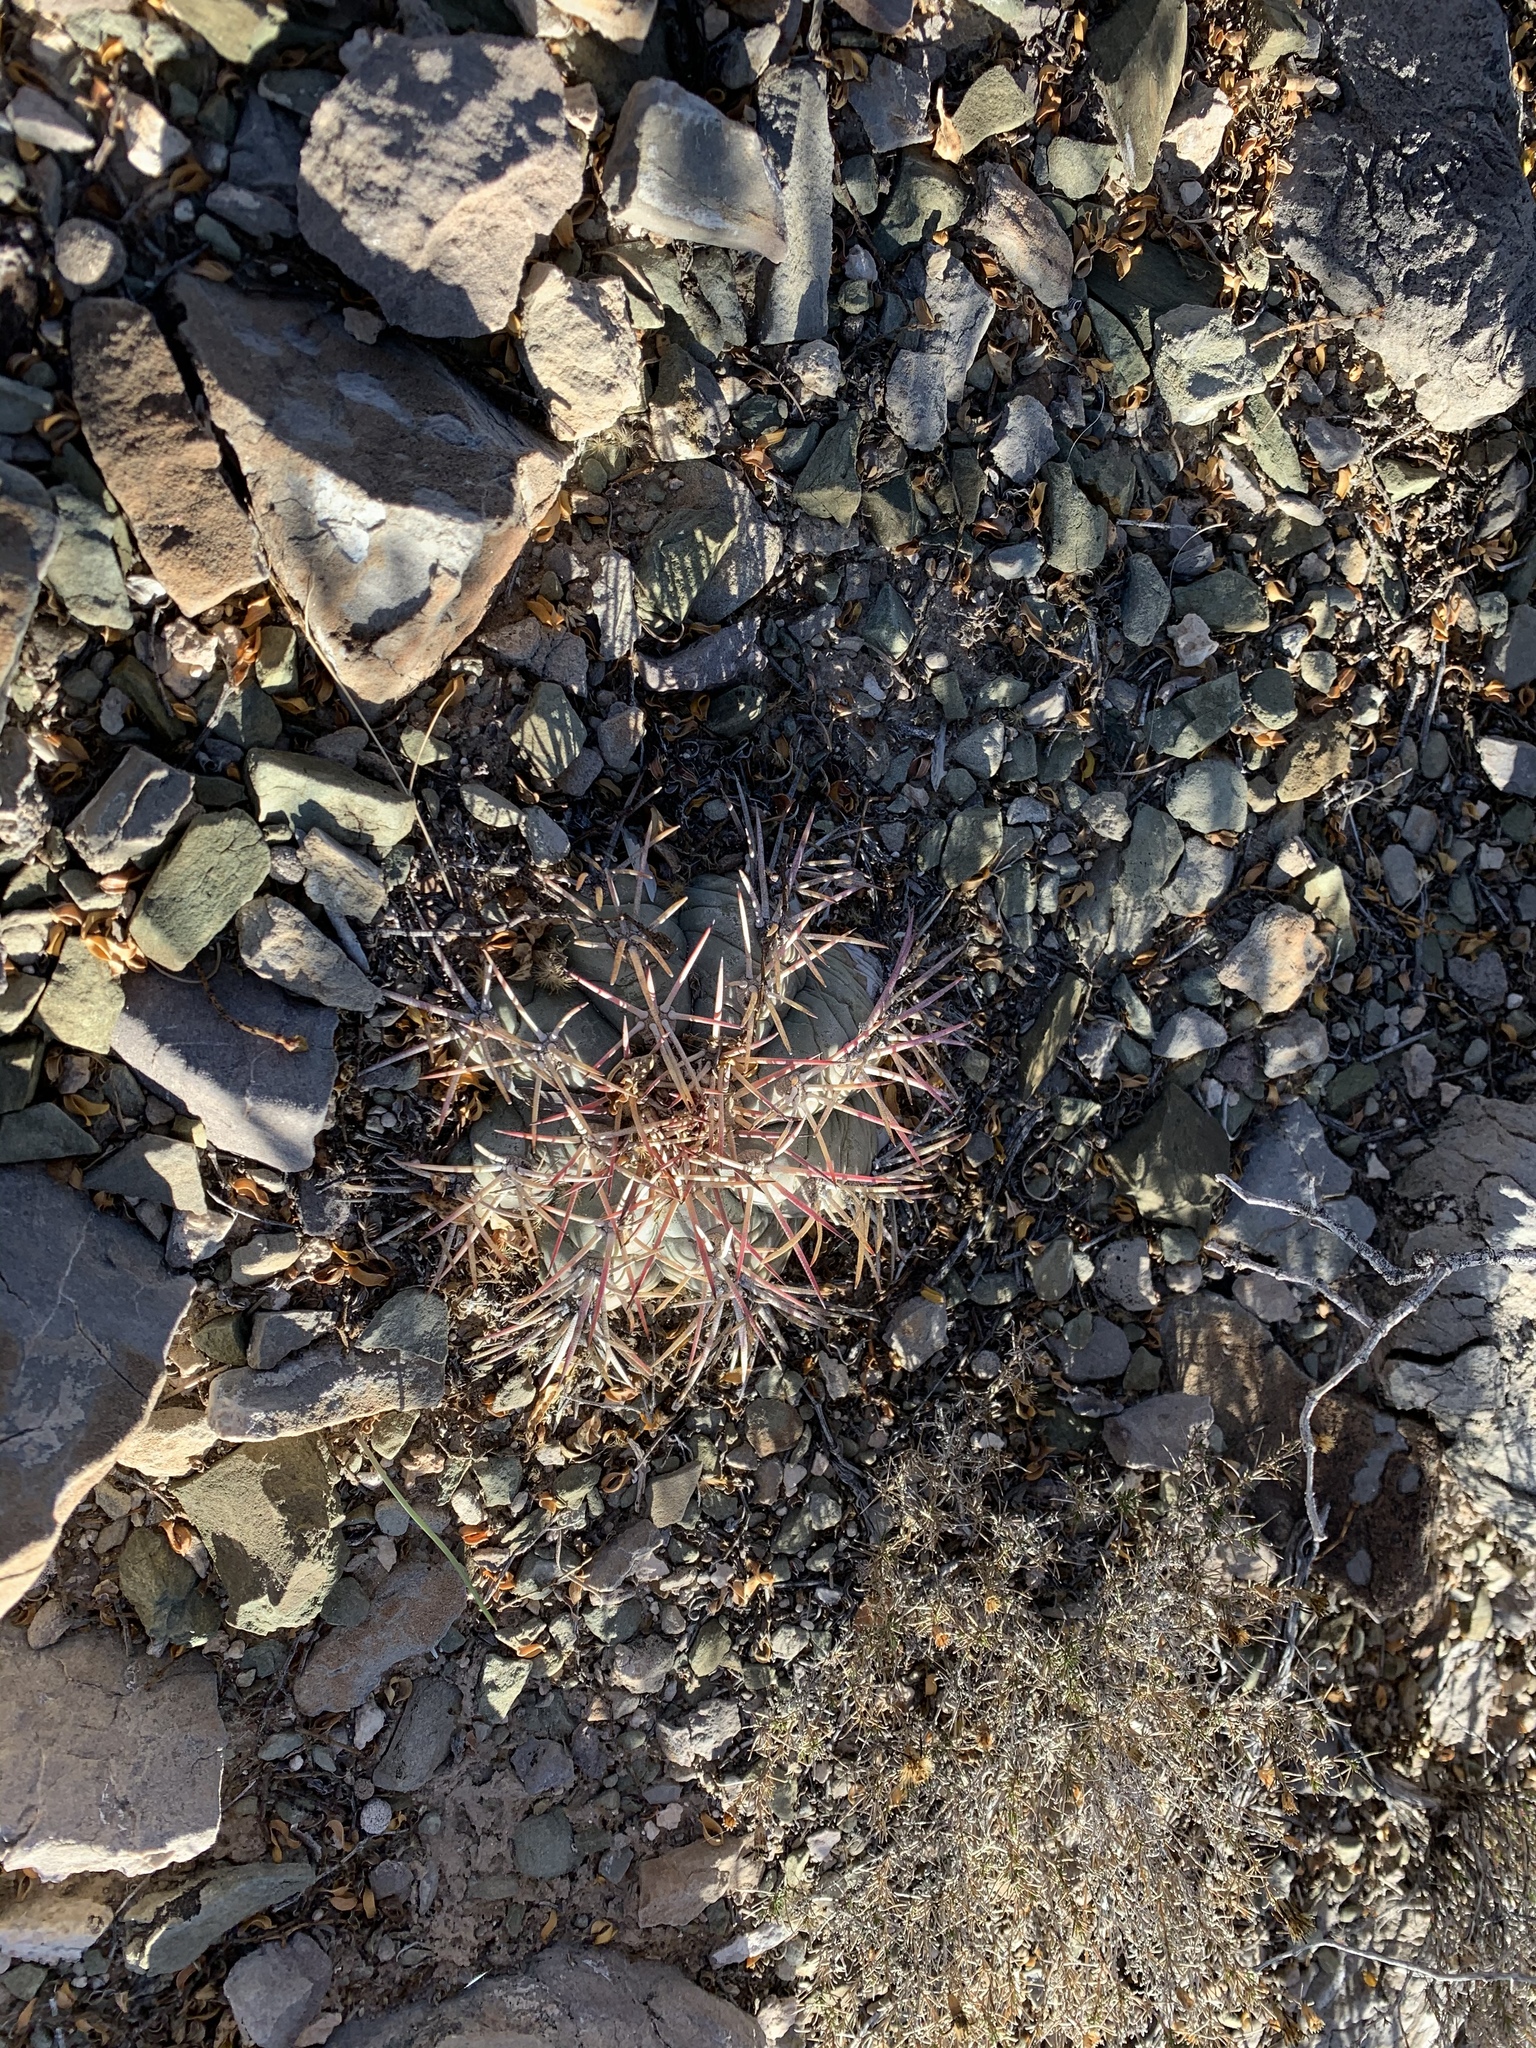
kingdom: Plantae
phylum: Tracheophyta
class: Magnoliopsida
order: Caryophyllales
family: Cactaceae
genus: Echinocactus
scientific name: Echinocactus horizonthalonius
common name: Devilshead
